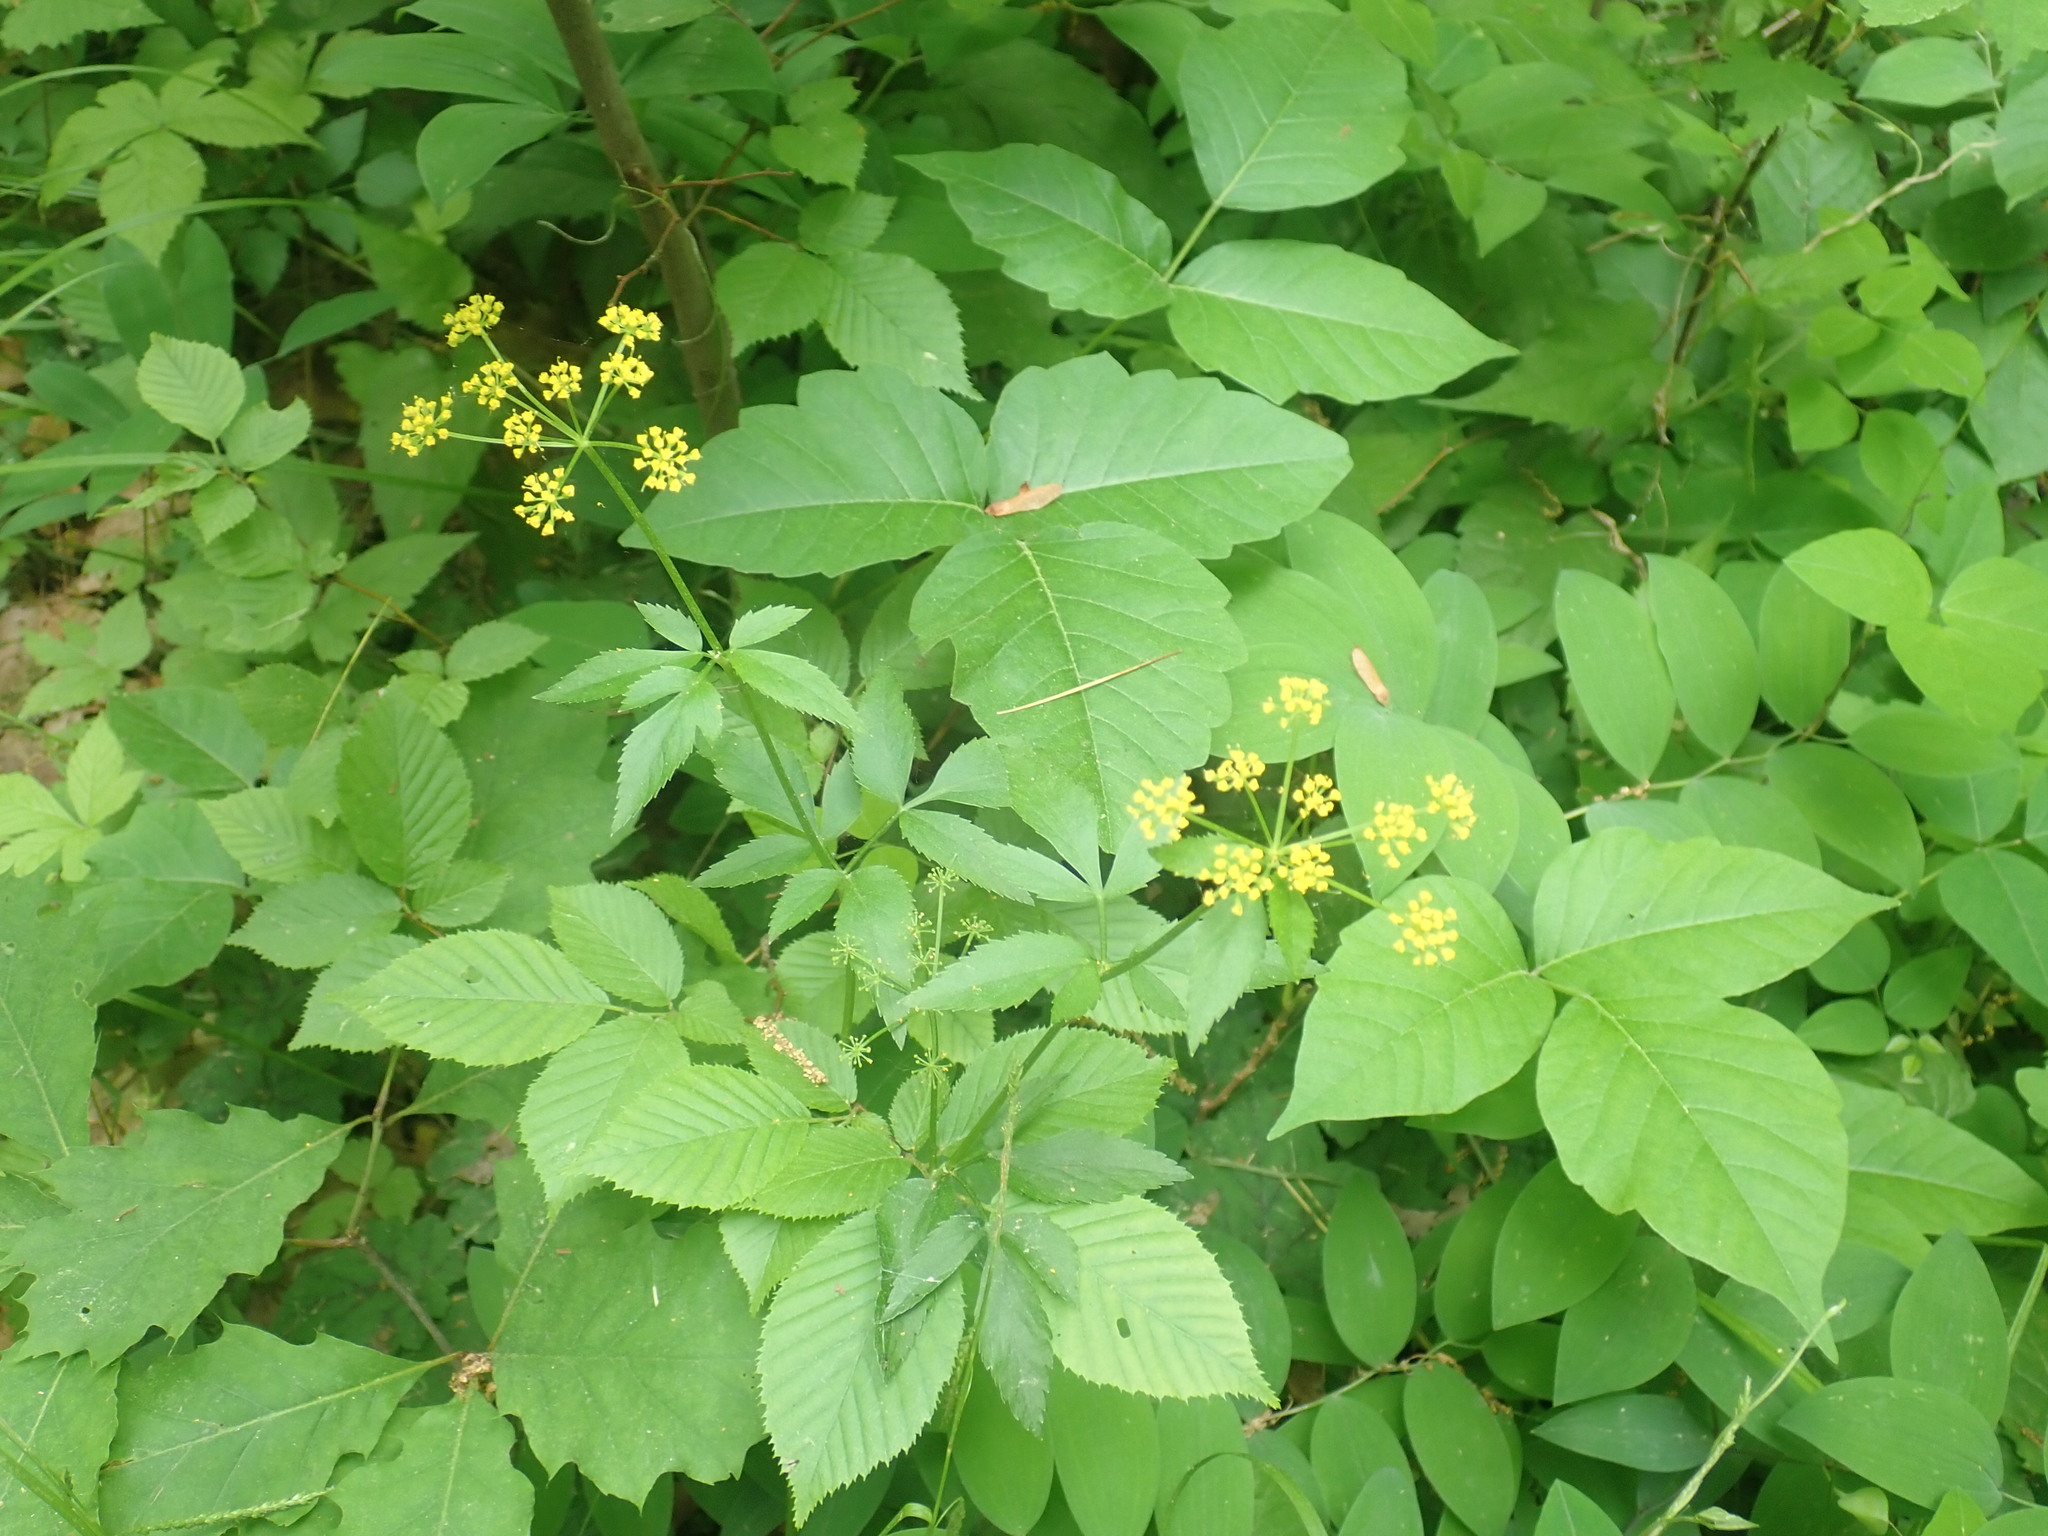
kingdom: Plantae
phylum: Tracheophyta
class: Magnoliopsida
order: Apiales
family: Apiaceae
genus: Zizia
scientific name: Zizia aurea
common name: Golden alexanders
